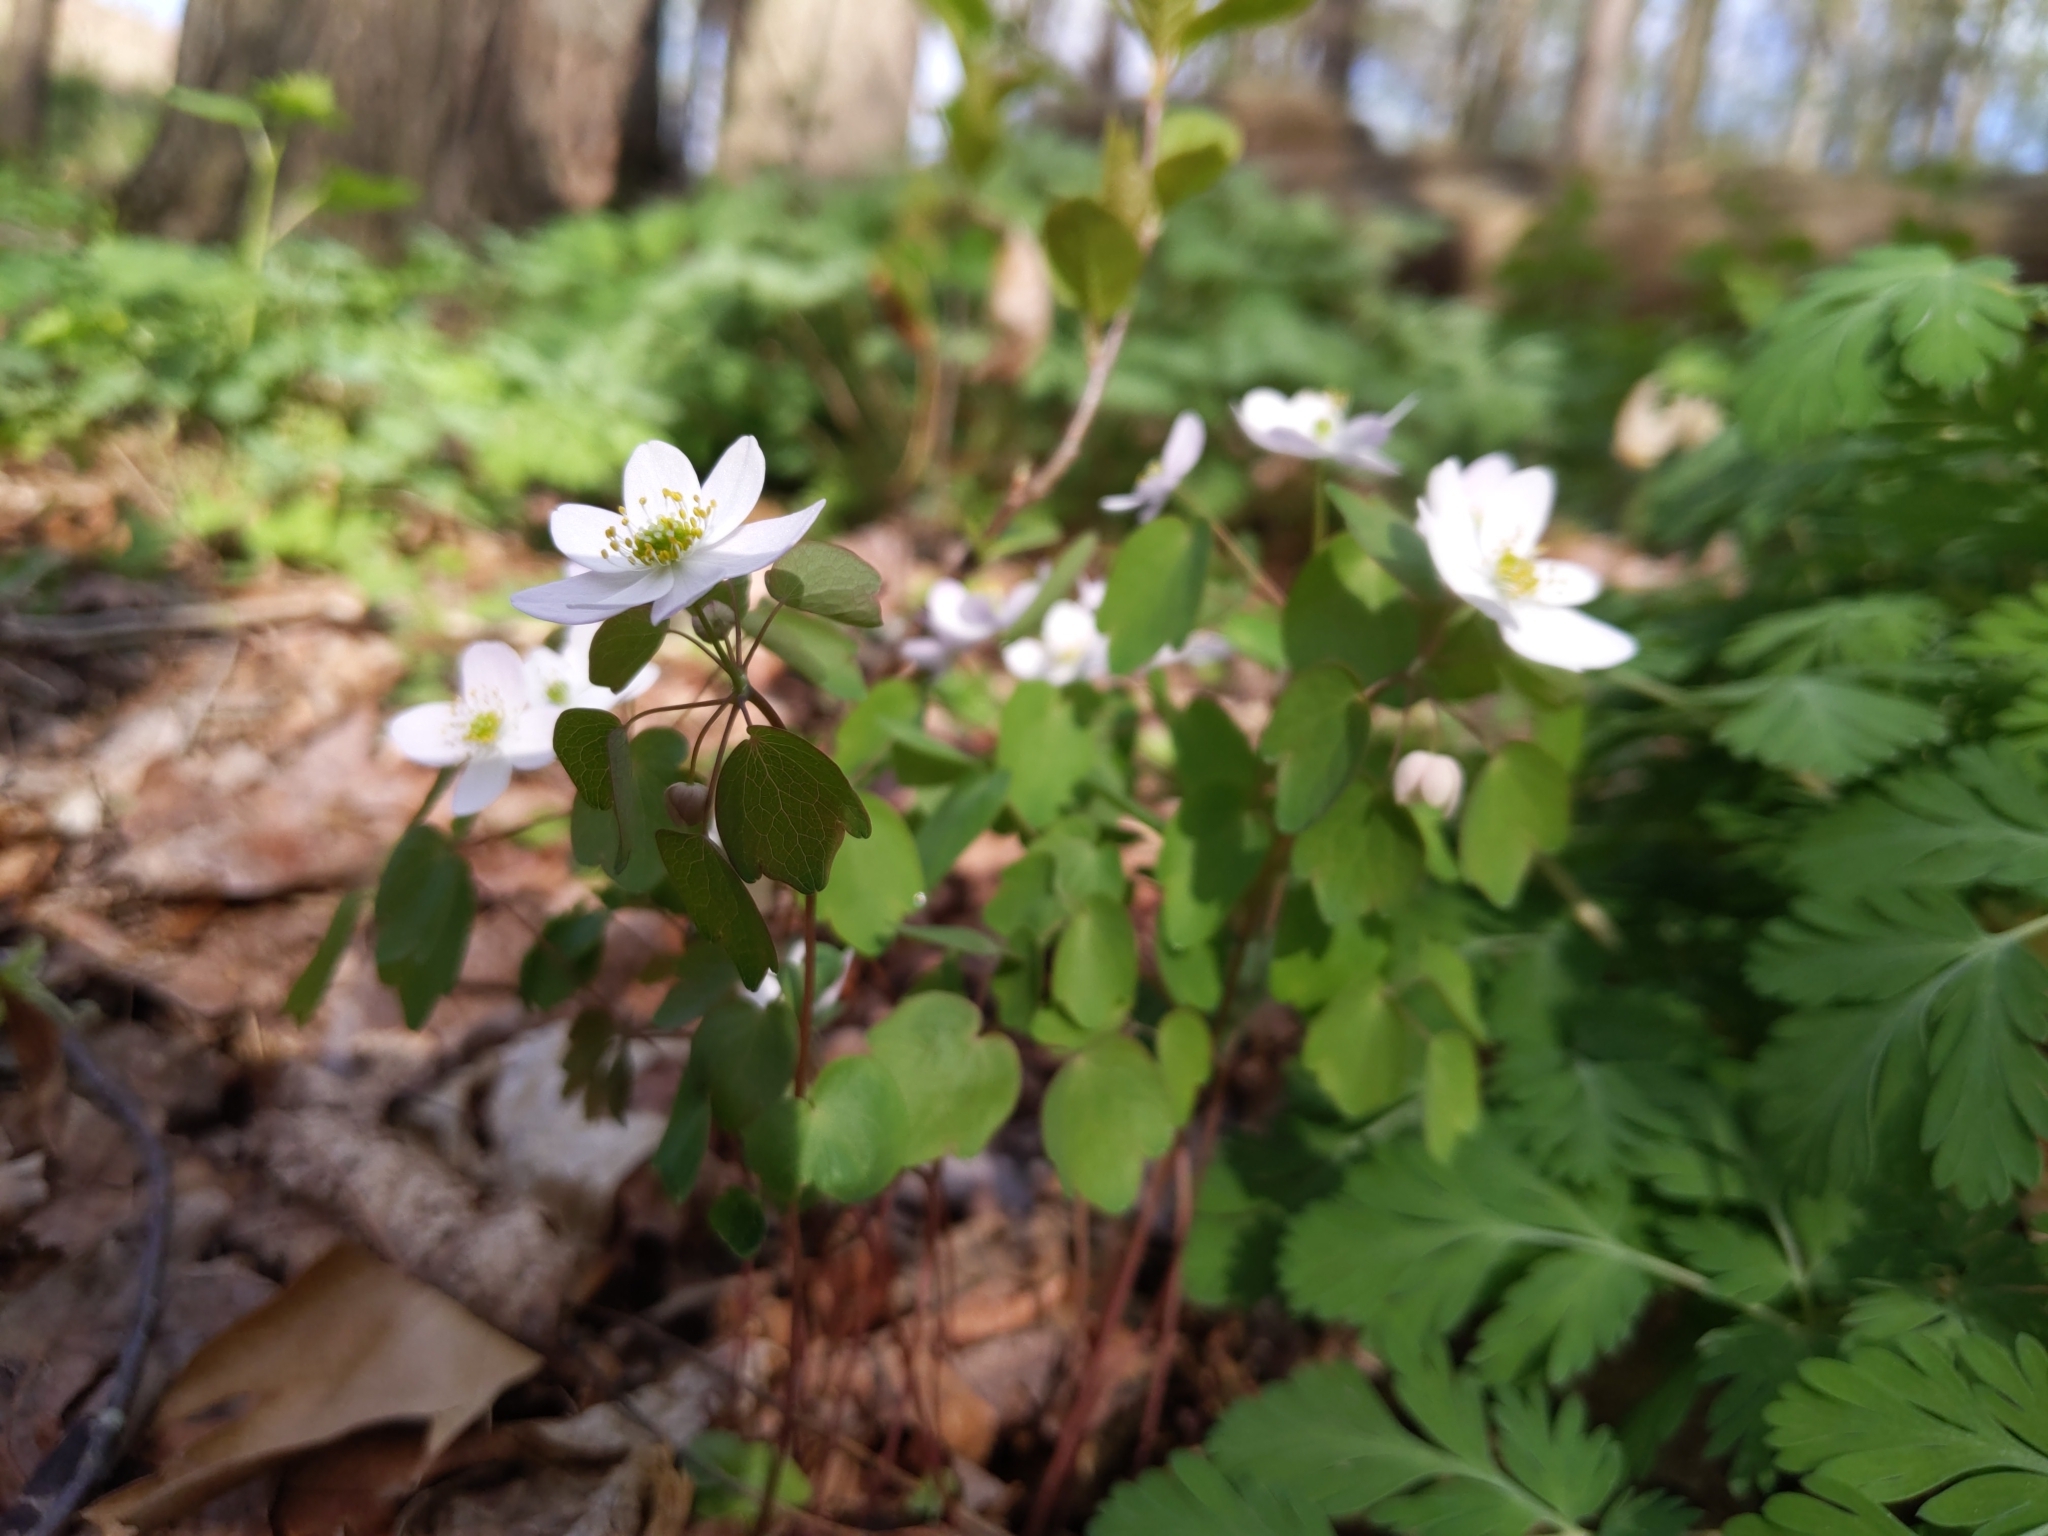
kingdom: Plantae
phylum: Tracheophyta
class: Magnoliopsida
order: Ranunculales
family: Ranunculaceae
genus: Thalictrum
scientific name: Thalictrum thalictroides
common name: Rue-anemone
